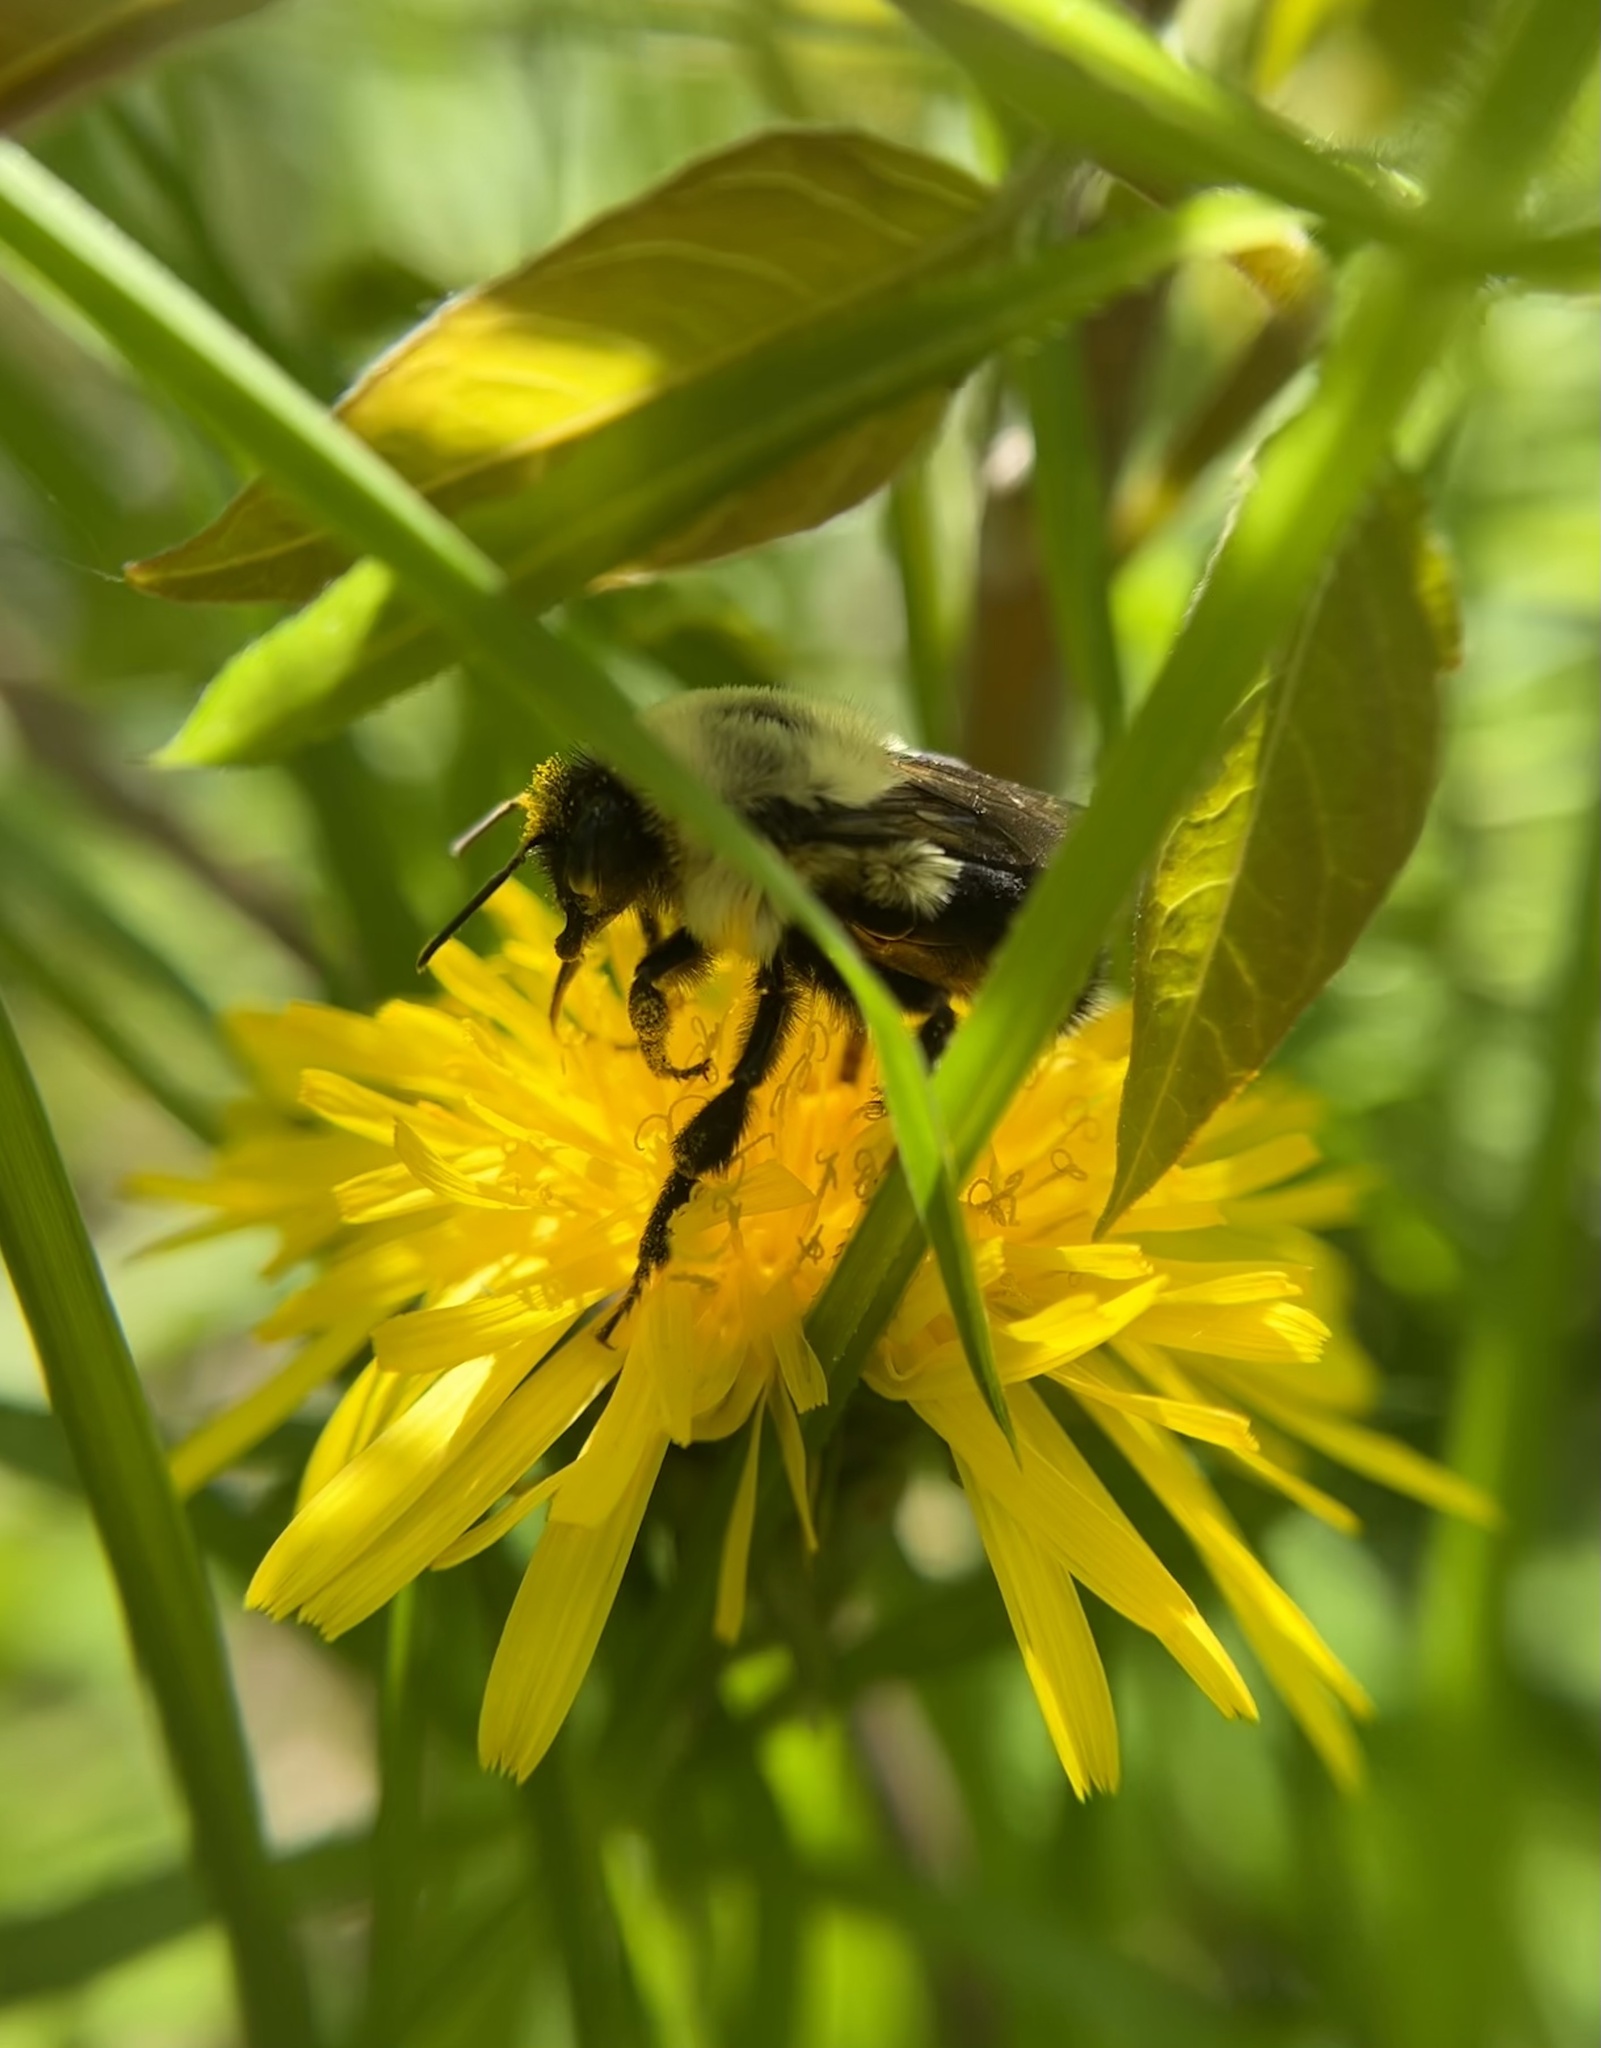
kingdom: Animalia
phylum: Arthropoda
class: Insecta
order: Hymenoptera
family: Apidae
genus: Bombus
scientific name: Bombus impatiens
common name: Common eastern bumble bee
